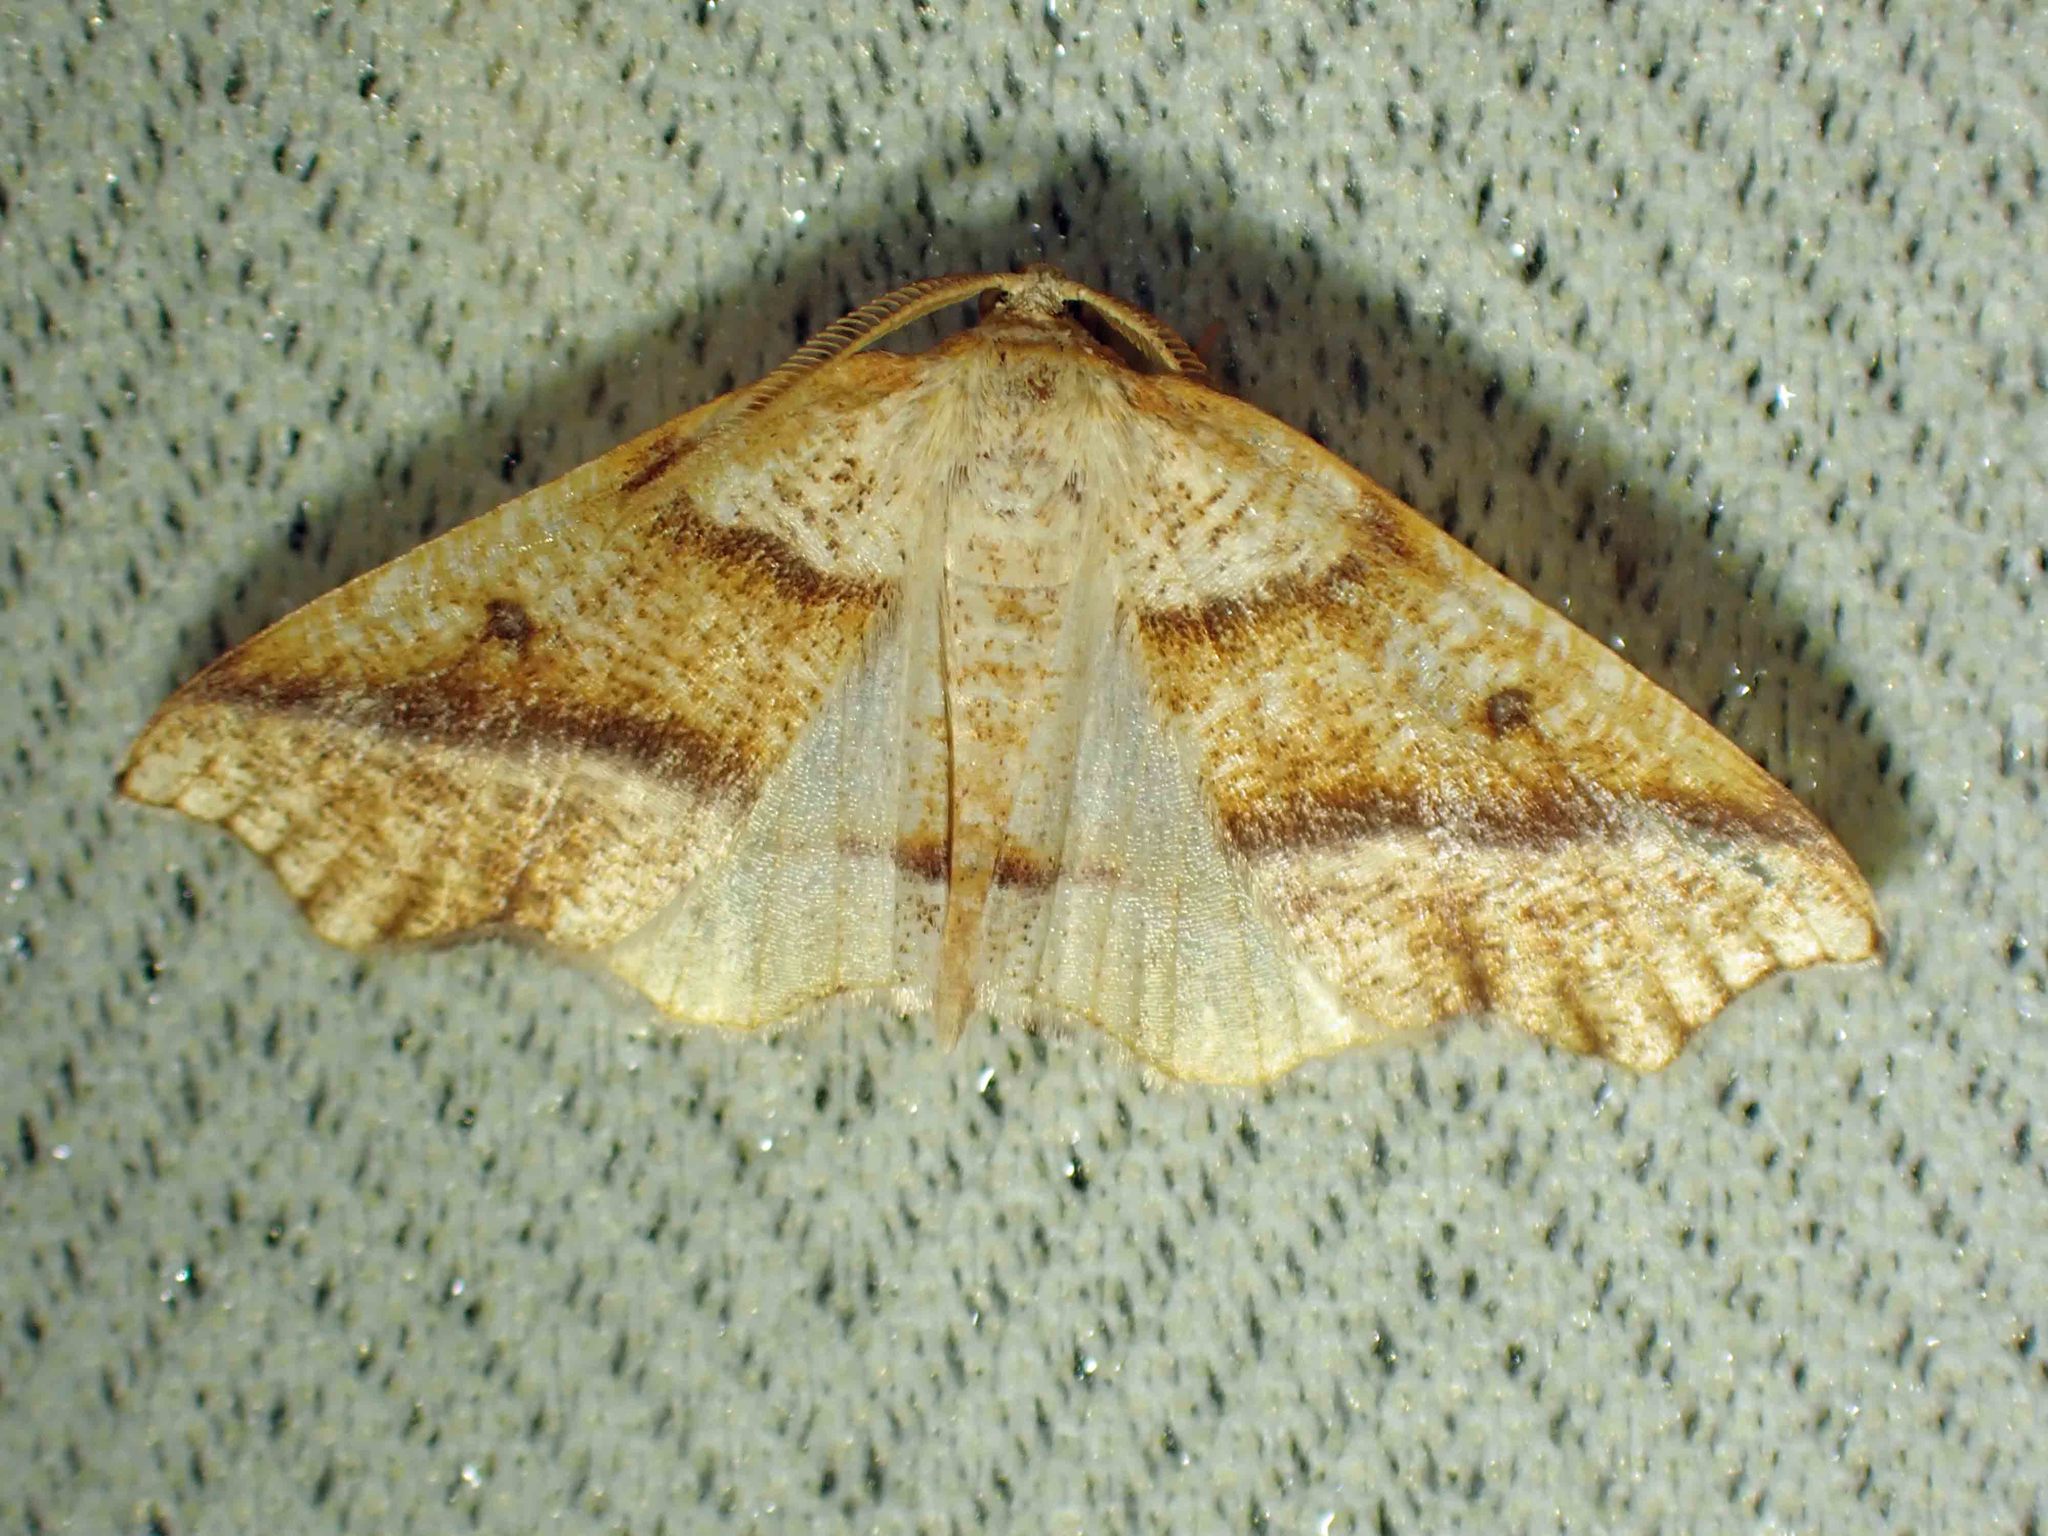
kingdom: Animalia
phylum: Arthropoda
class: Insecta
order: Lepidoptera
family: Geometridae
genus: Plagodis
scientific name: Plagodis alcoolaria
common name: Hollow-spotted plagodis
